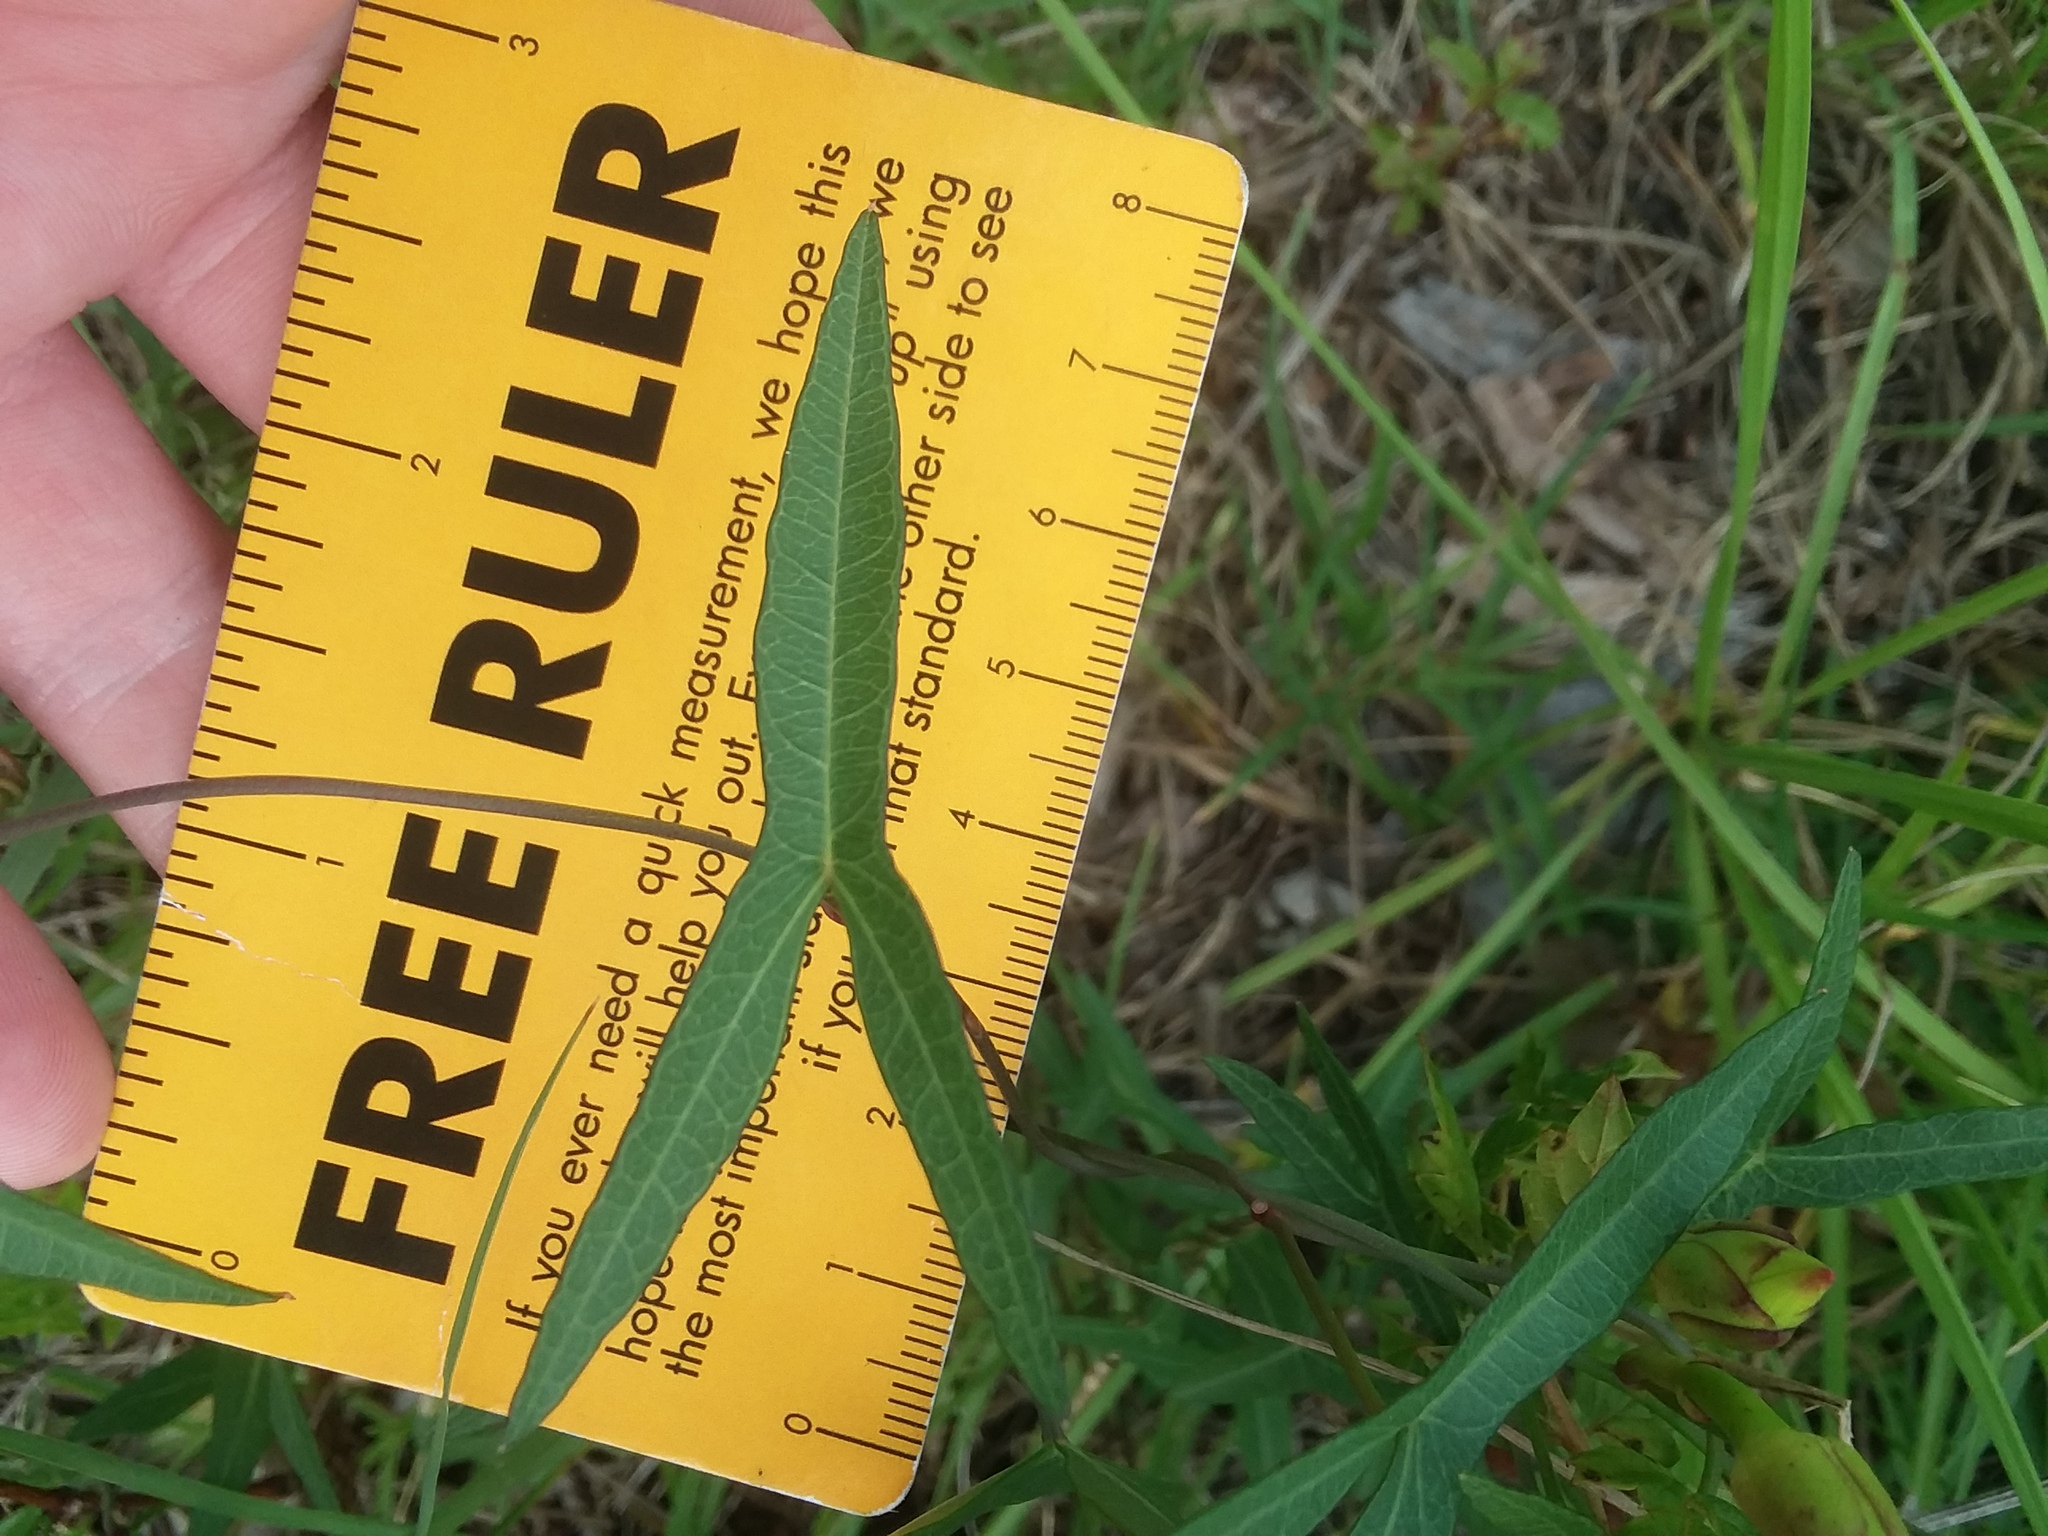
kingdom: Plantae
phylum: Tracheophyta
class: Magnoliopsida
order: Solanales
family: Convolvulaceae
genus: Ipomoea
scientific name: Ipomoea sagittata
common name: Saltmarsh morning glory
